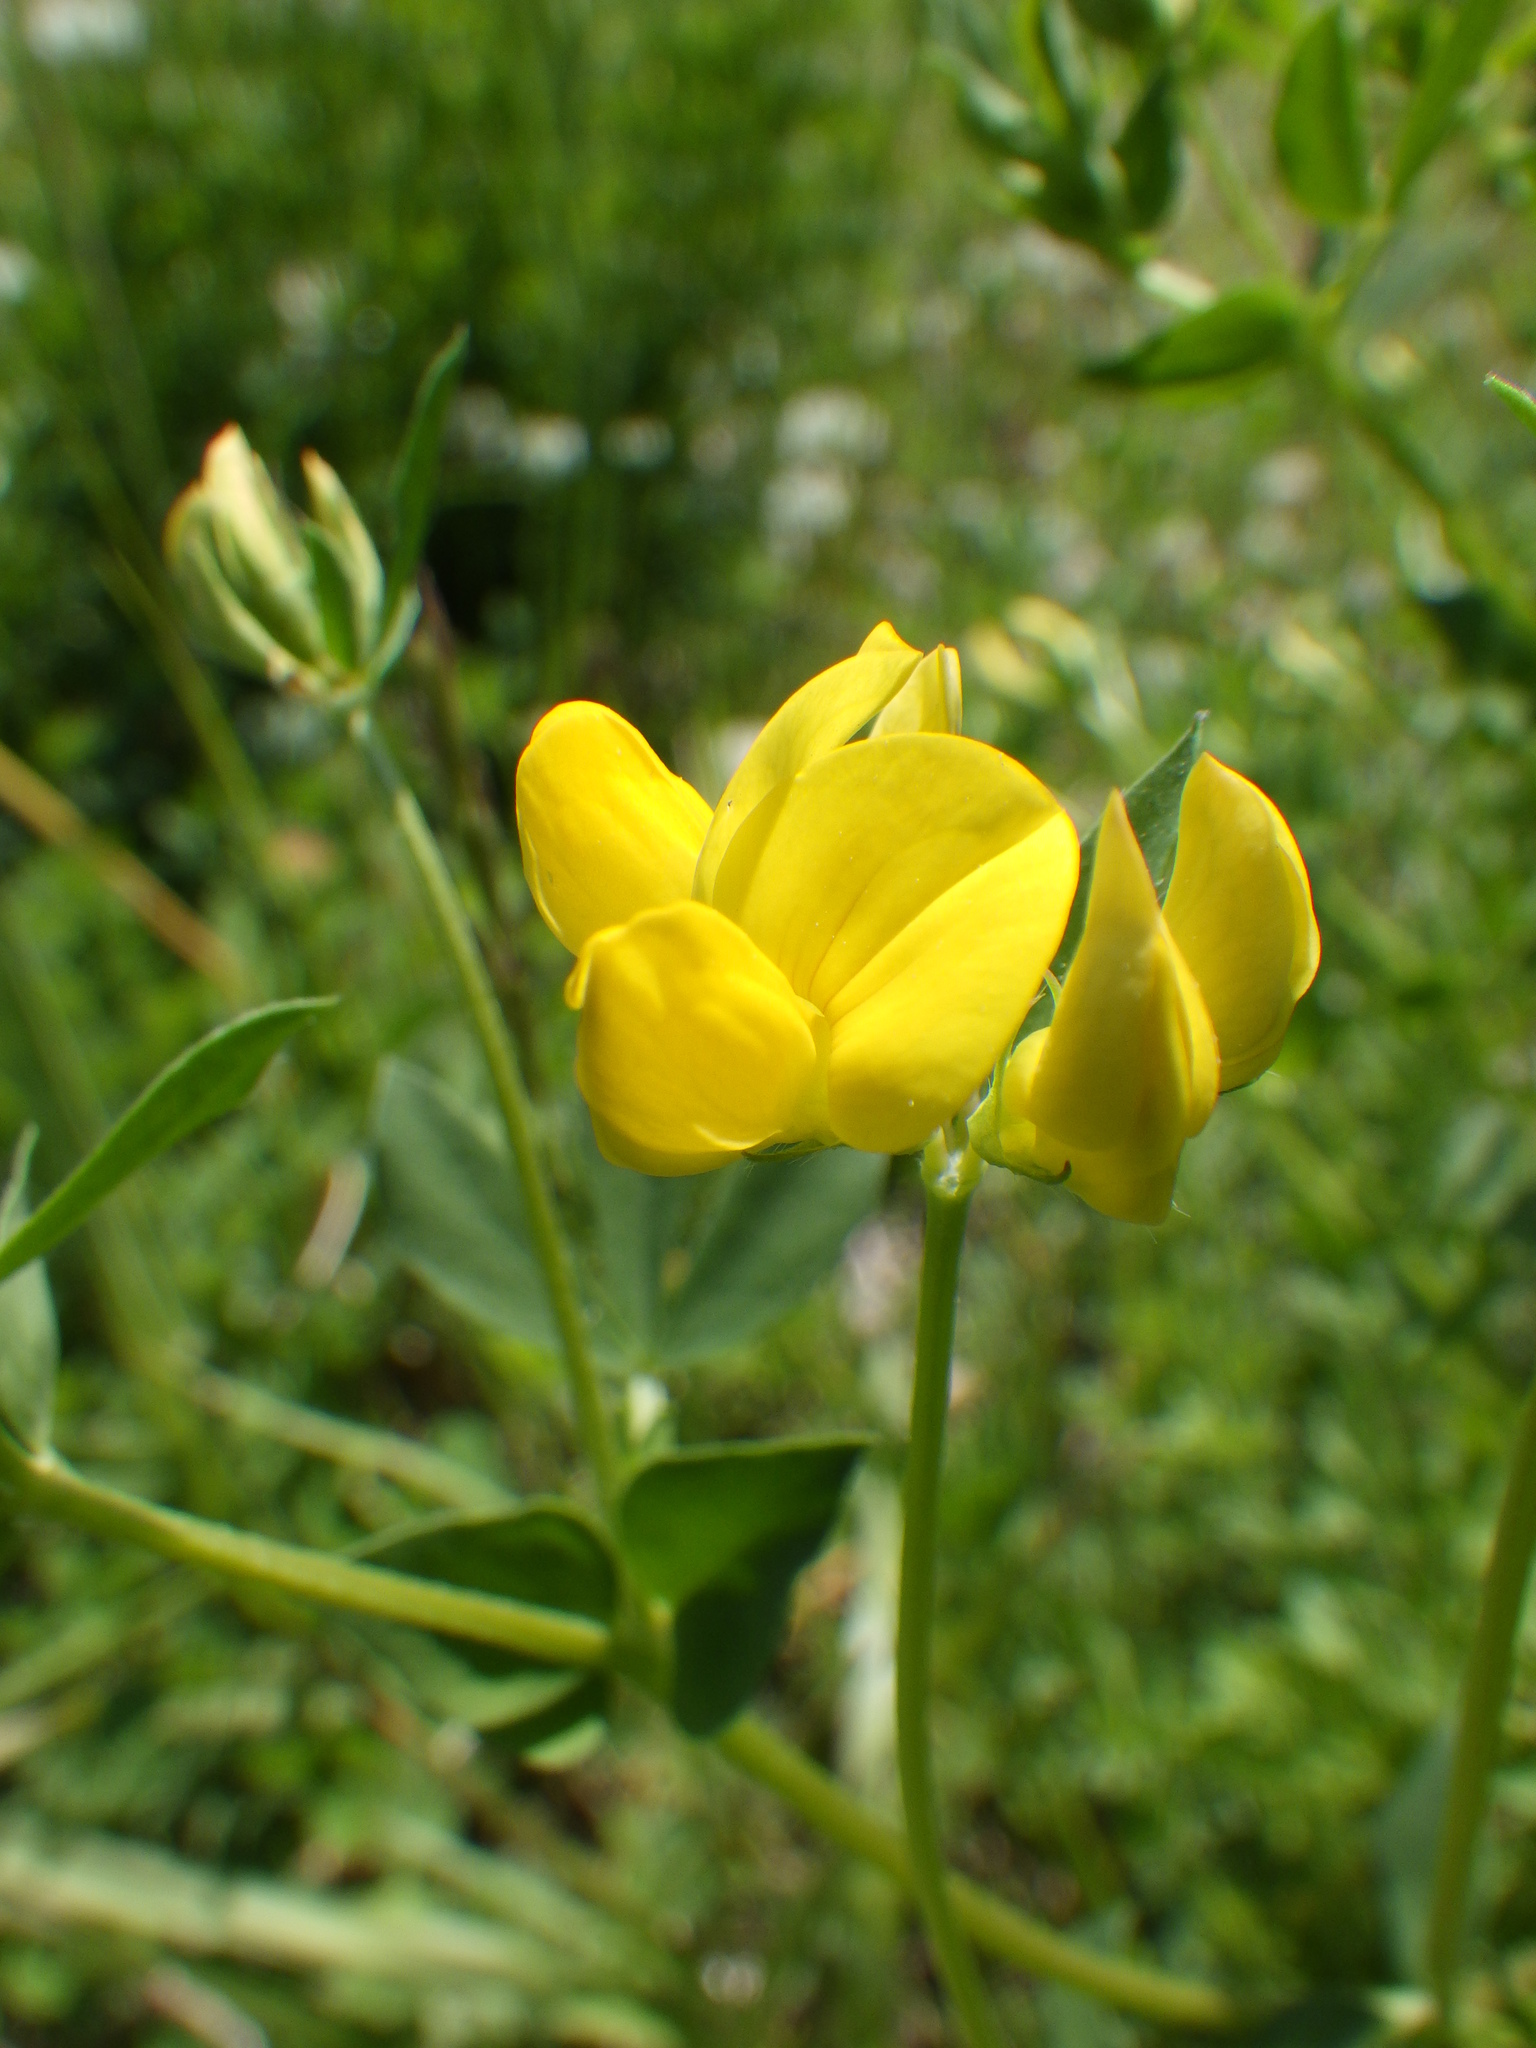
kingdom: Plantae
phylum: Tracheophyta
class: Magnoliopsida
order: Fabales
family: Fabaceae
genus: Lotus
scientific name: Lotus corniculatus
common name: Common bird's-foot-trefoil
